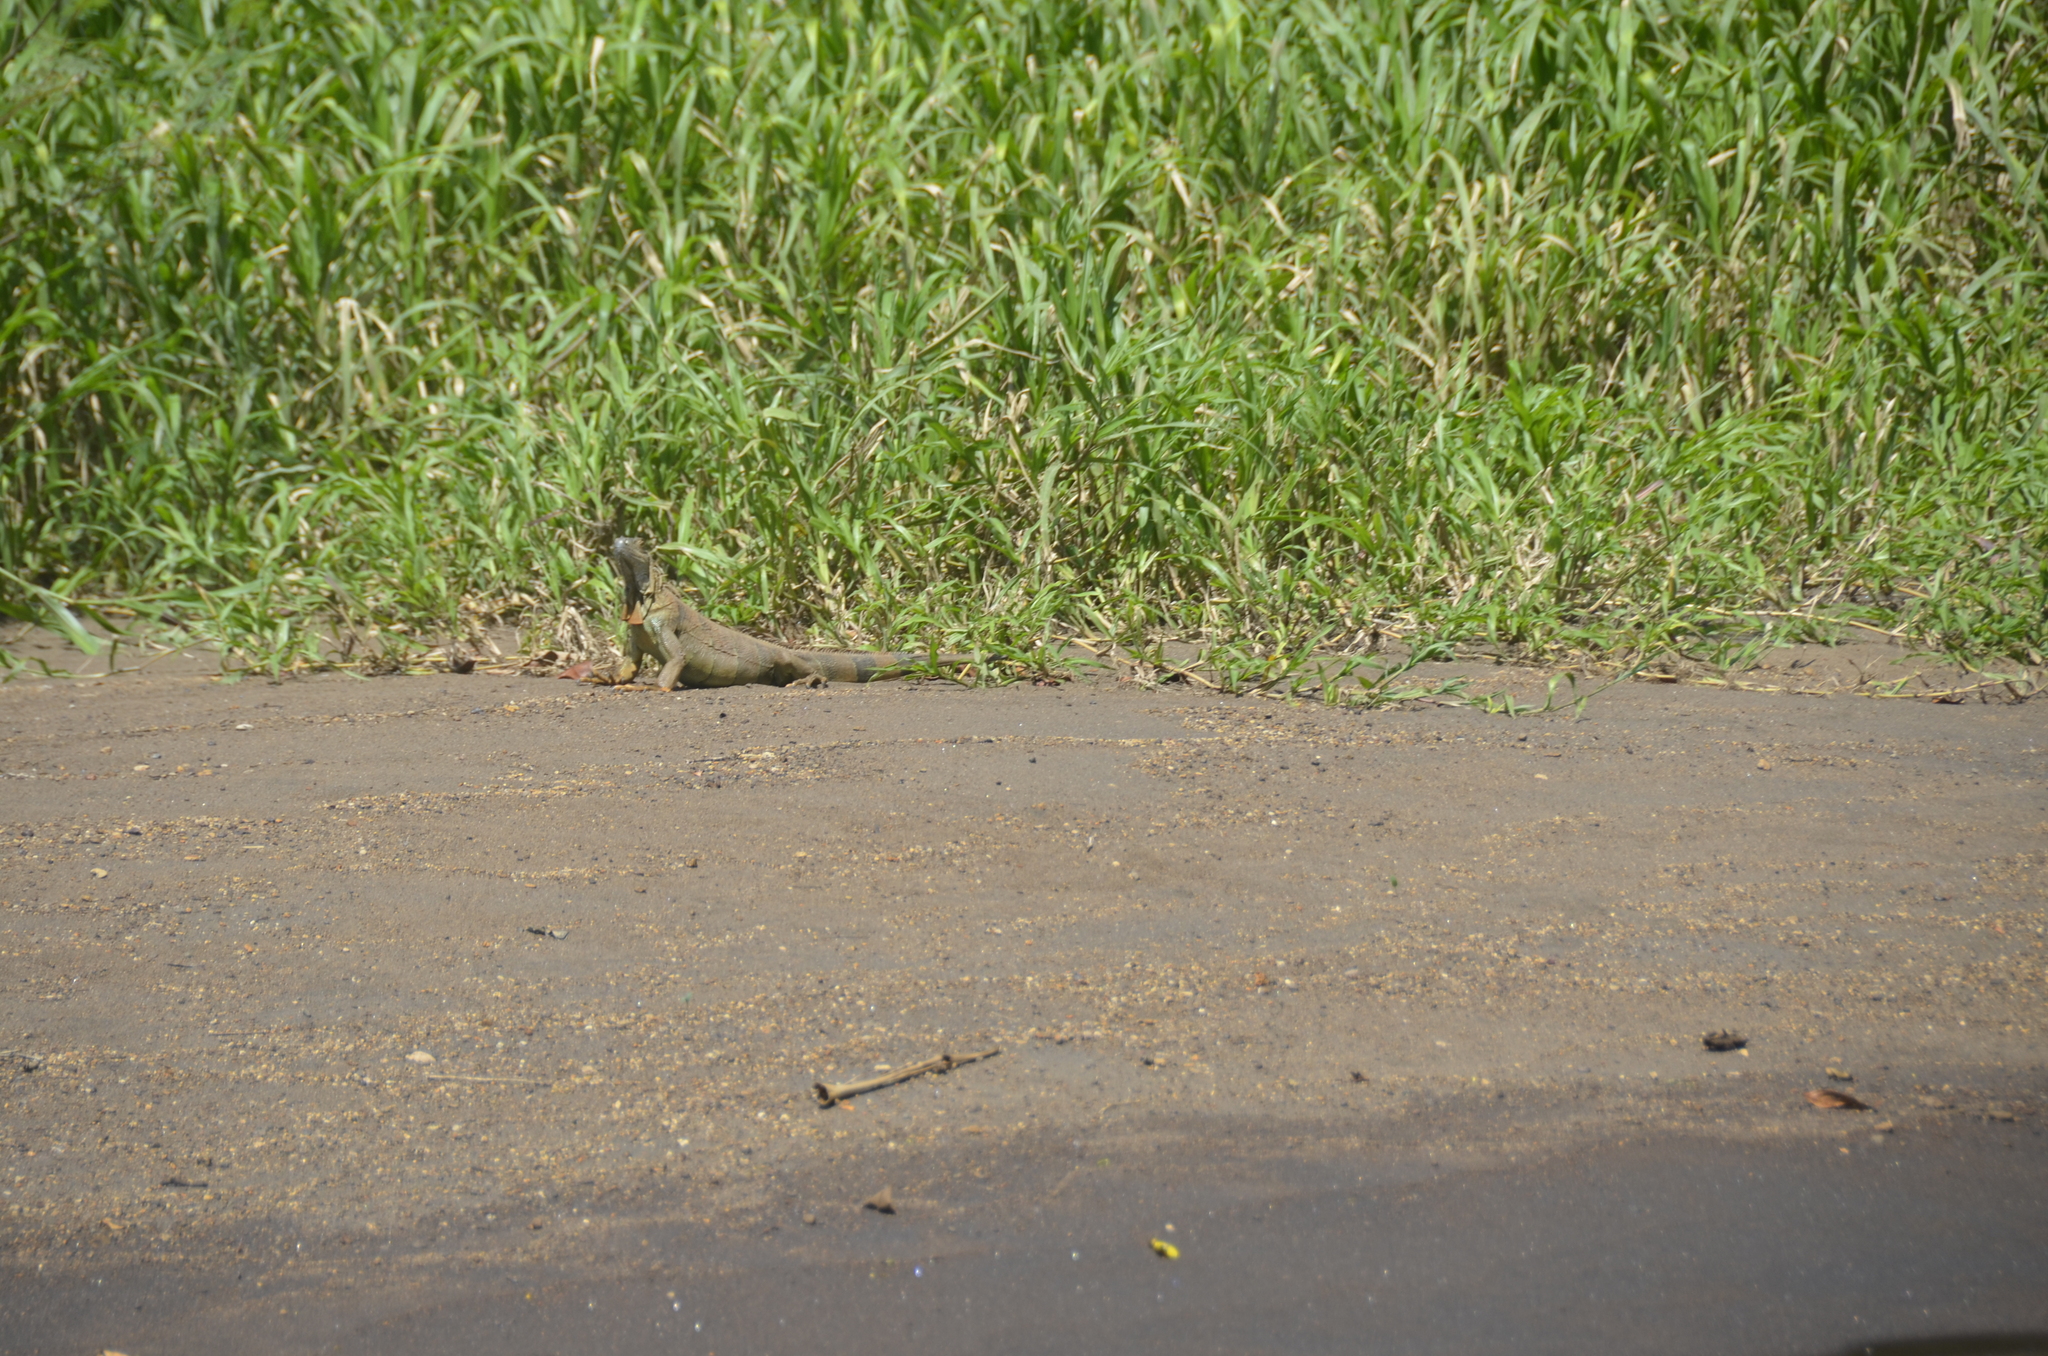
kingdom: Animalia
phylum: Chordata
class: Squamata
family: Iguanidae
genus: Iguana
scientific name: Iguana iguana
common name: Green iguana
